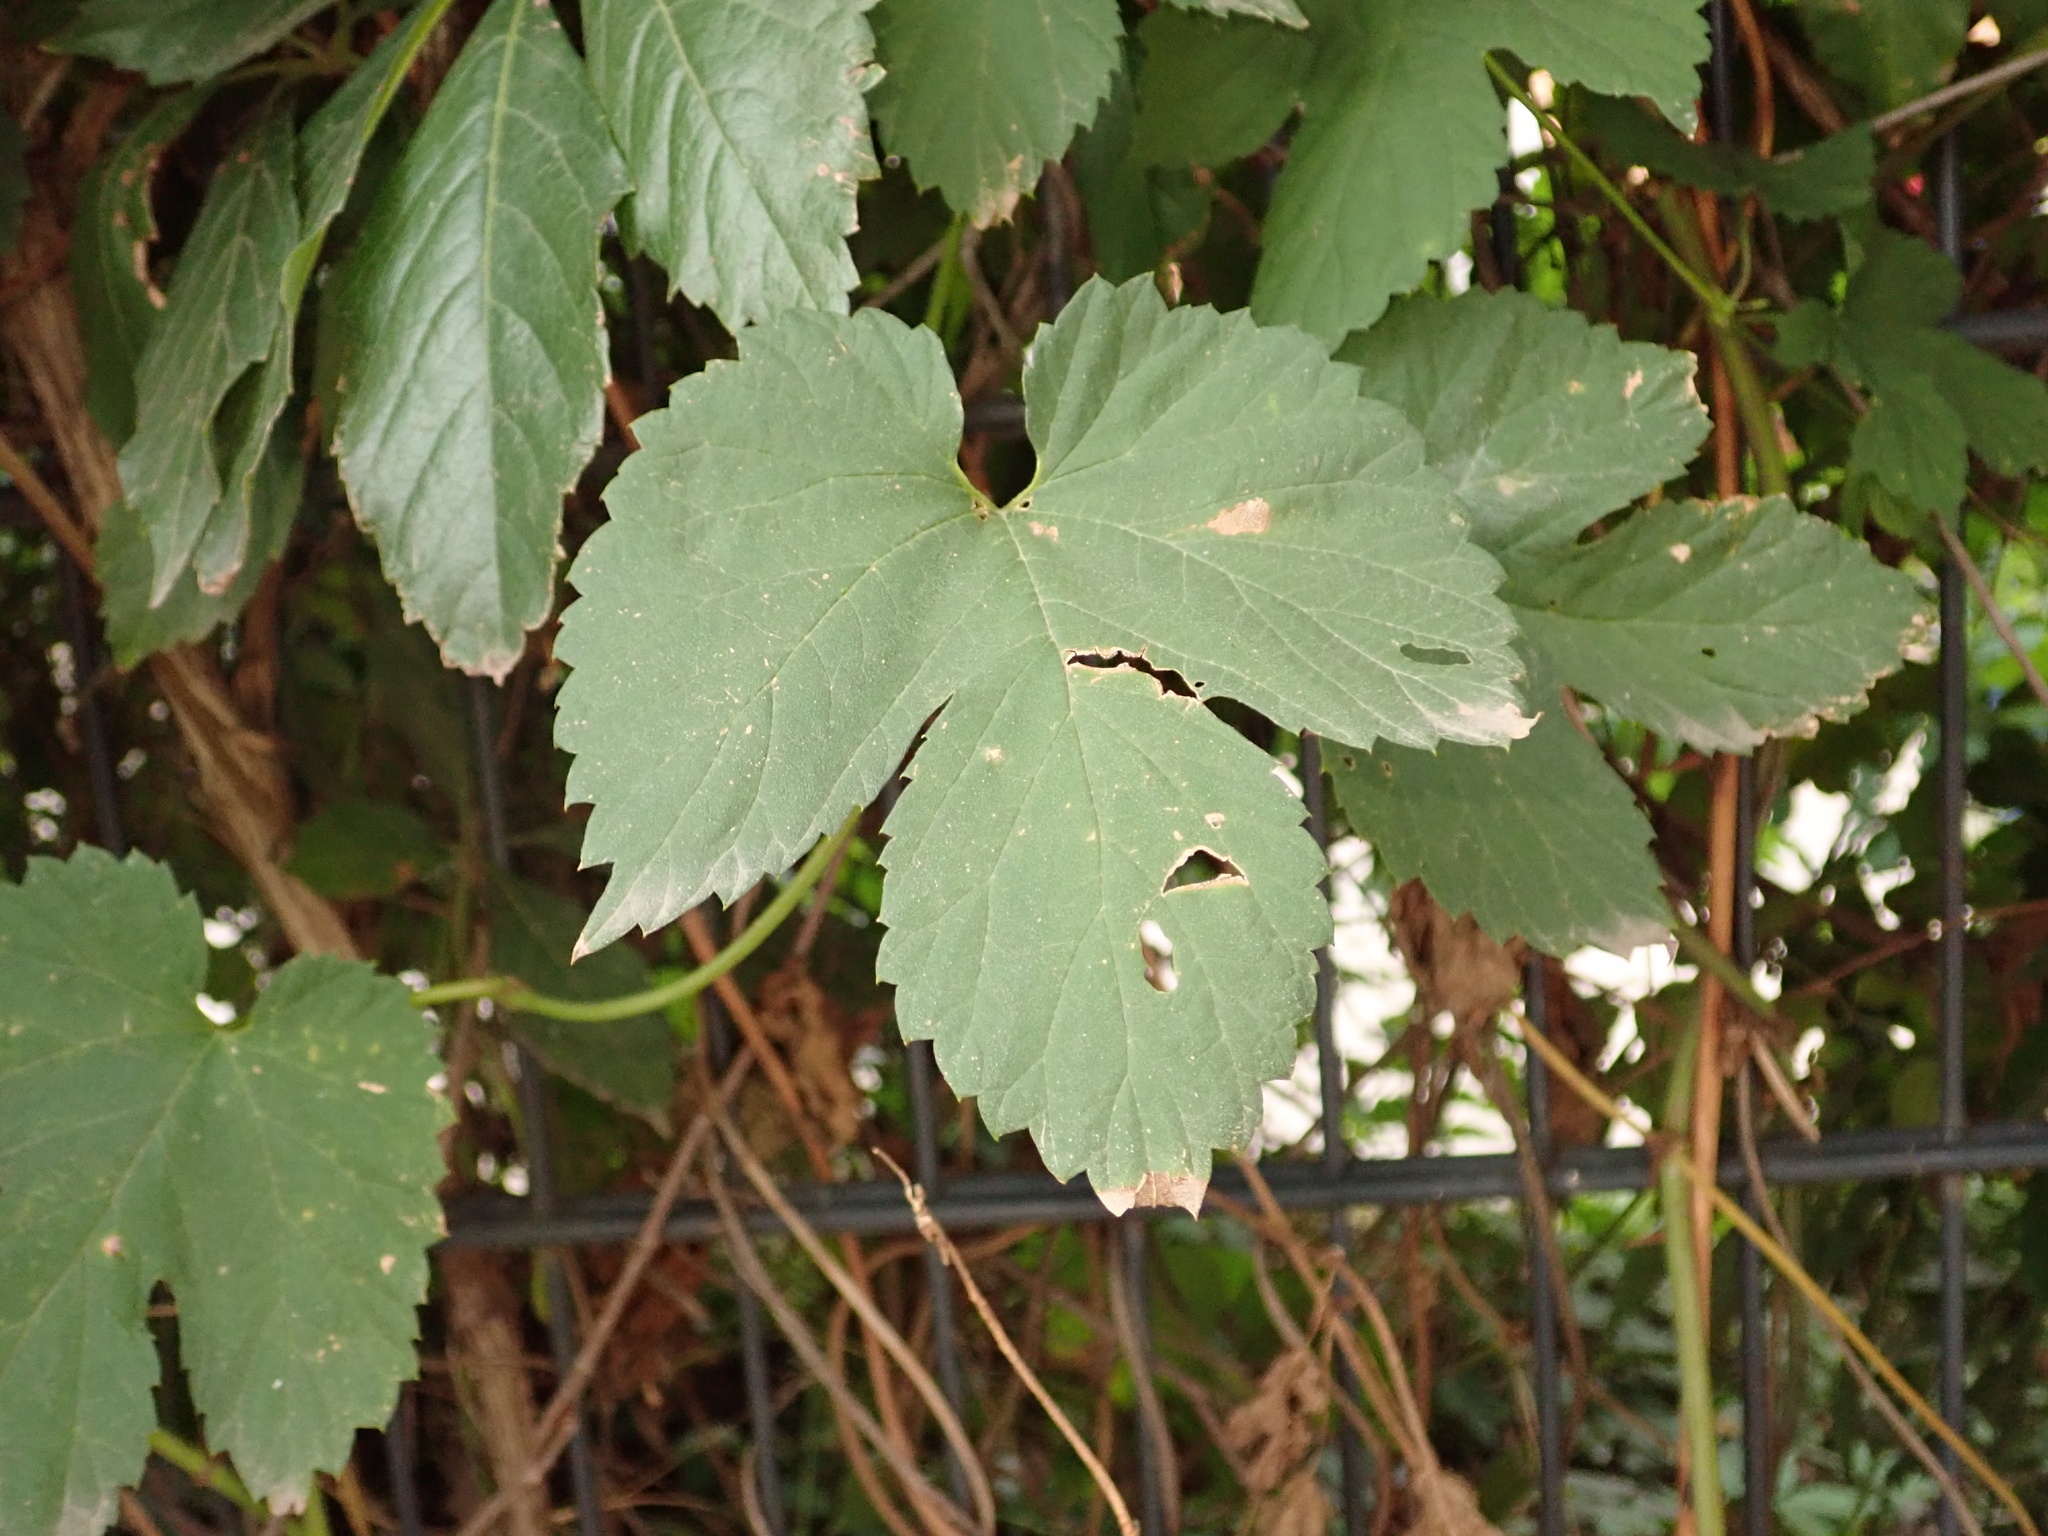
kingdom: Plantae
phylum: Tracheophyta
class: Magnoliopsida
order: Rosales
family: Cannabaceae
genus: Humulus
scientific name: Humulus lupulus
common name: Hop
